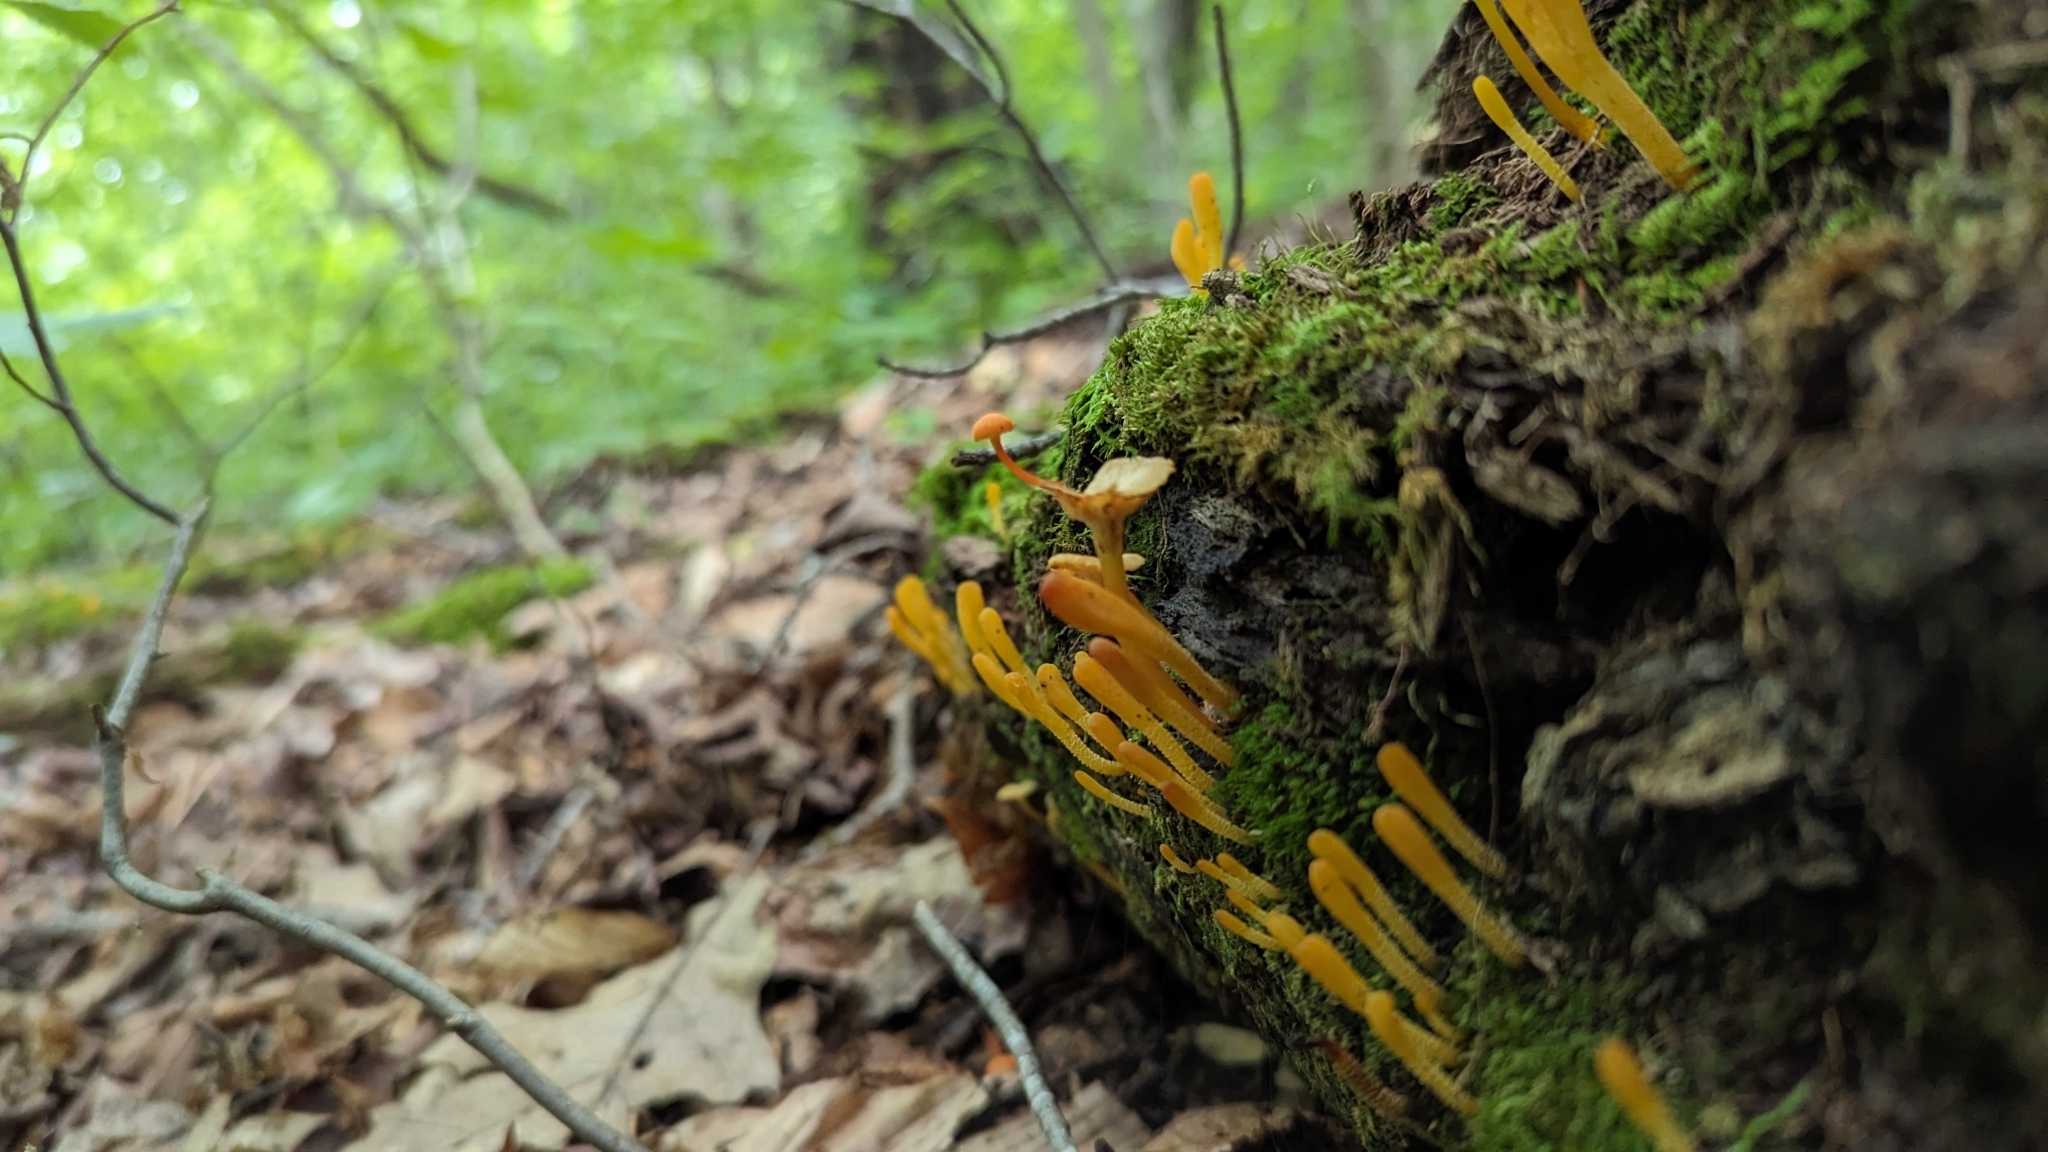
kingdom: Fungi
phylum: Ascomycota
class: Leotiomycetes
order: Leotiales
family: Leotiaceae
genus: Microglossum
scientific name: Microglossum rufum
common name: Orange earthtongue
